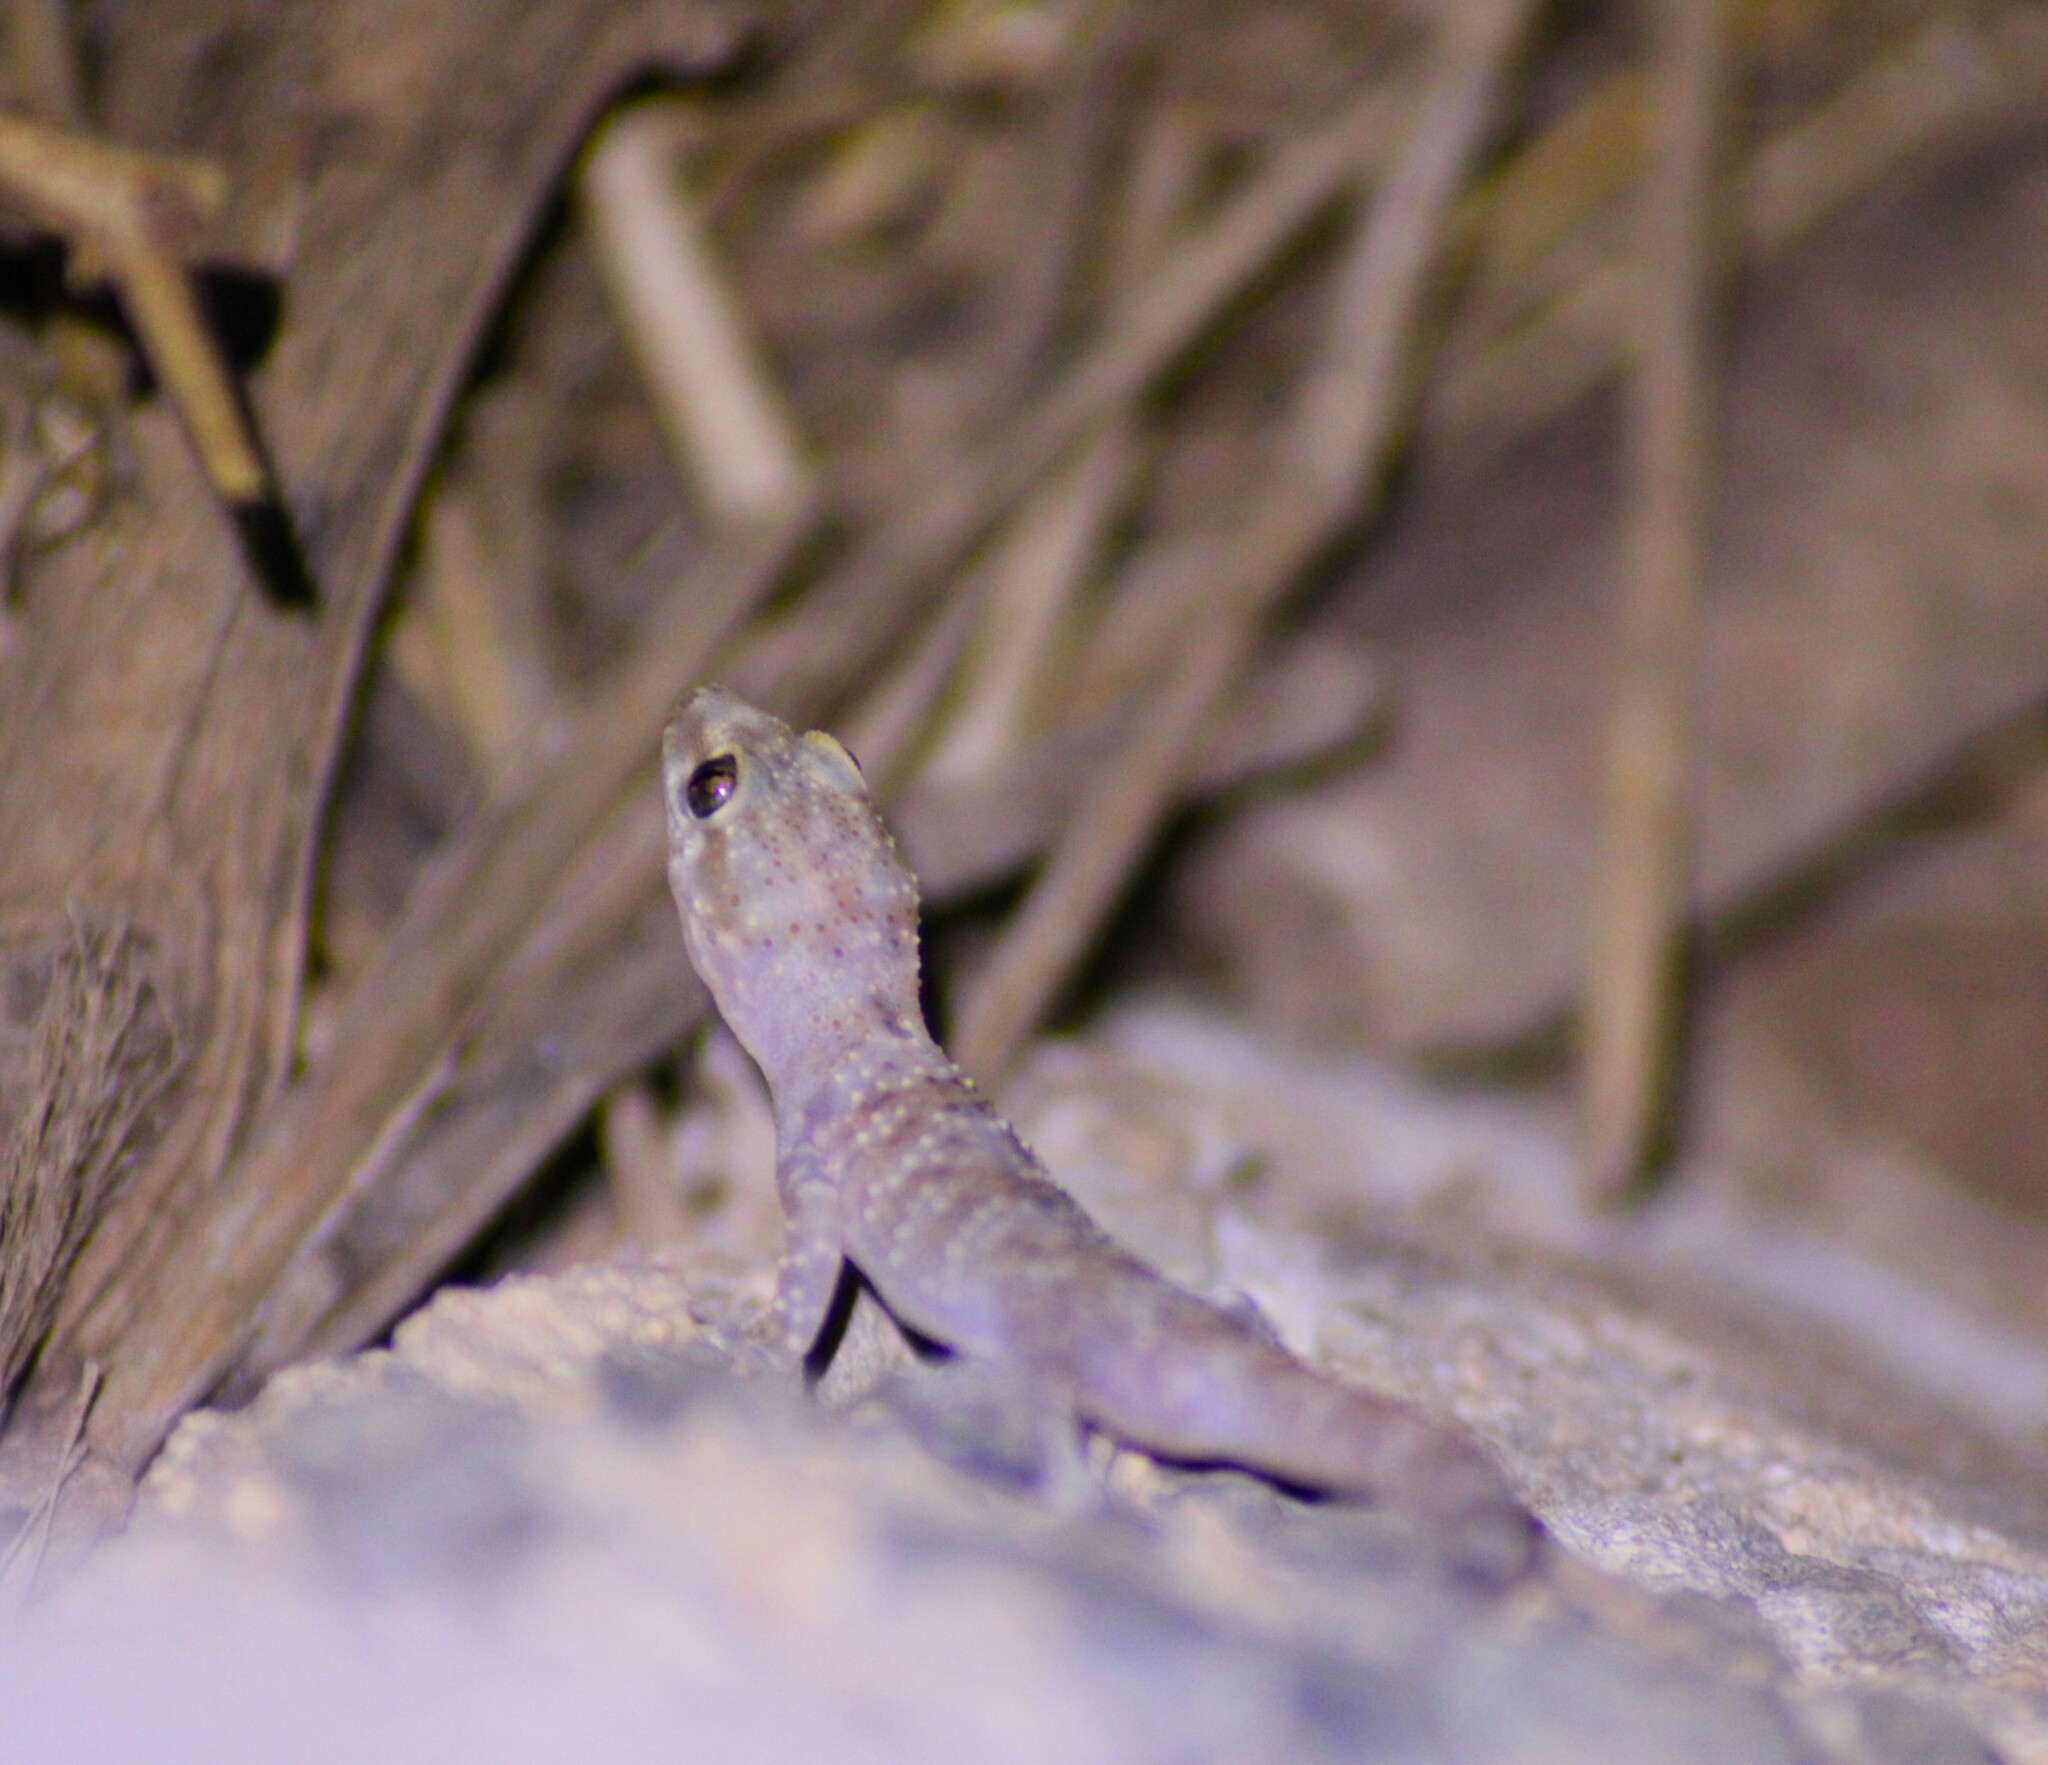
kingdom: Animalia
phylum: Chordata
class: Squamata
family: Gekkonidae
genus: Hemidactylus
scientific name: Hemidactylus turcicus
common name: Turkish gecko
